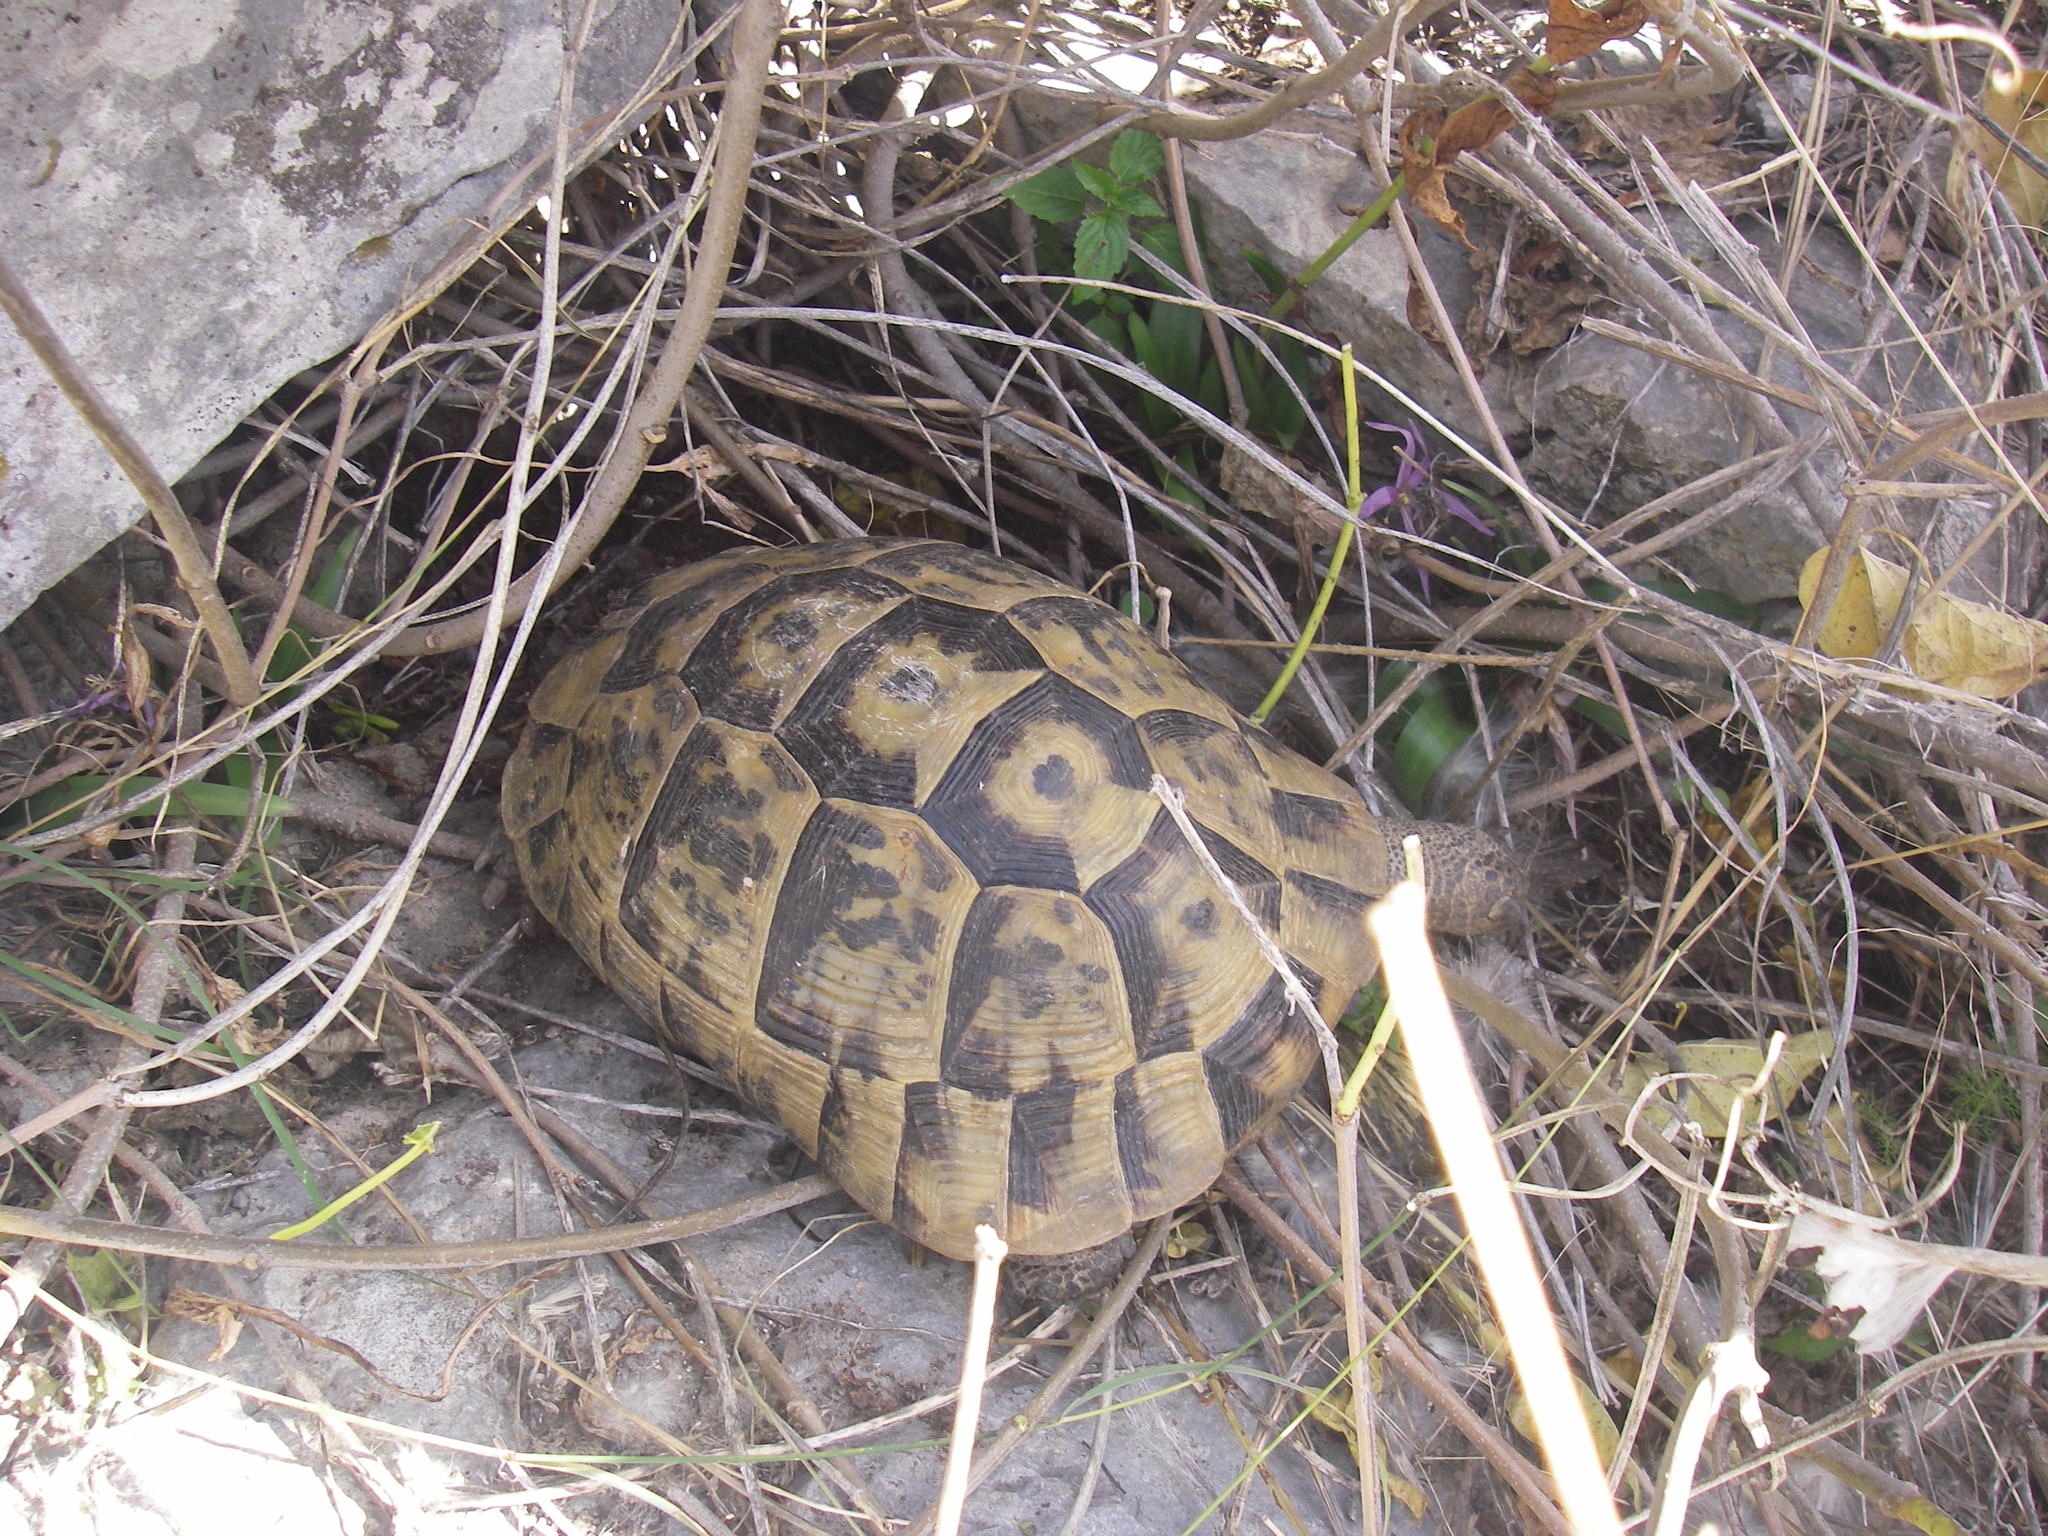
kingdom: Animalia
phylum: Chordata
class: Testudines
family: Testudinidae
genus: Testudo
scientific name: Testudo graeca
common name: Common tortoise
